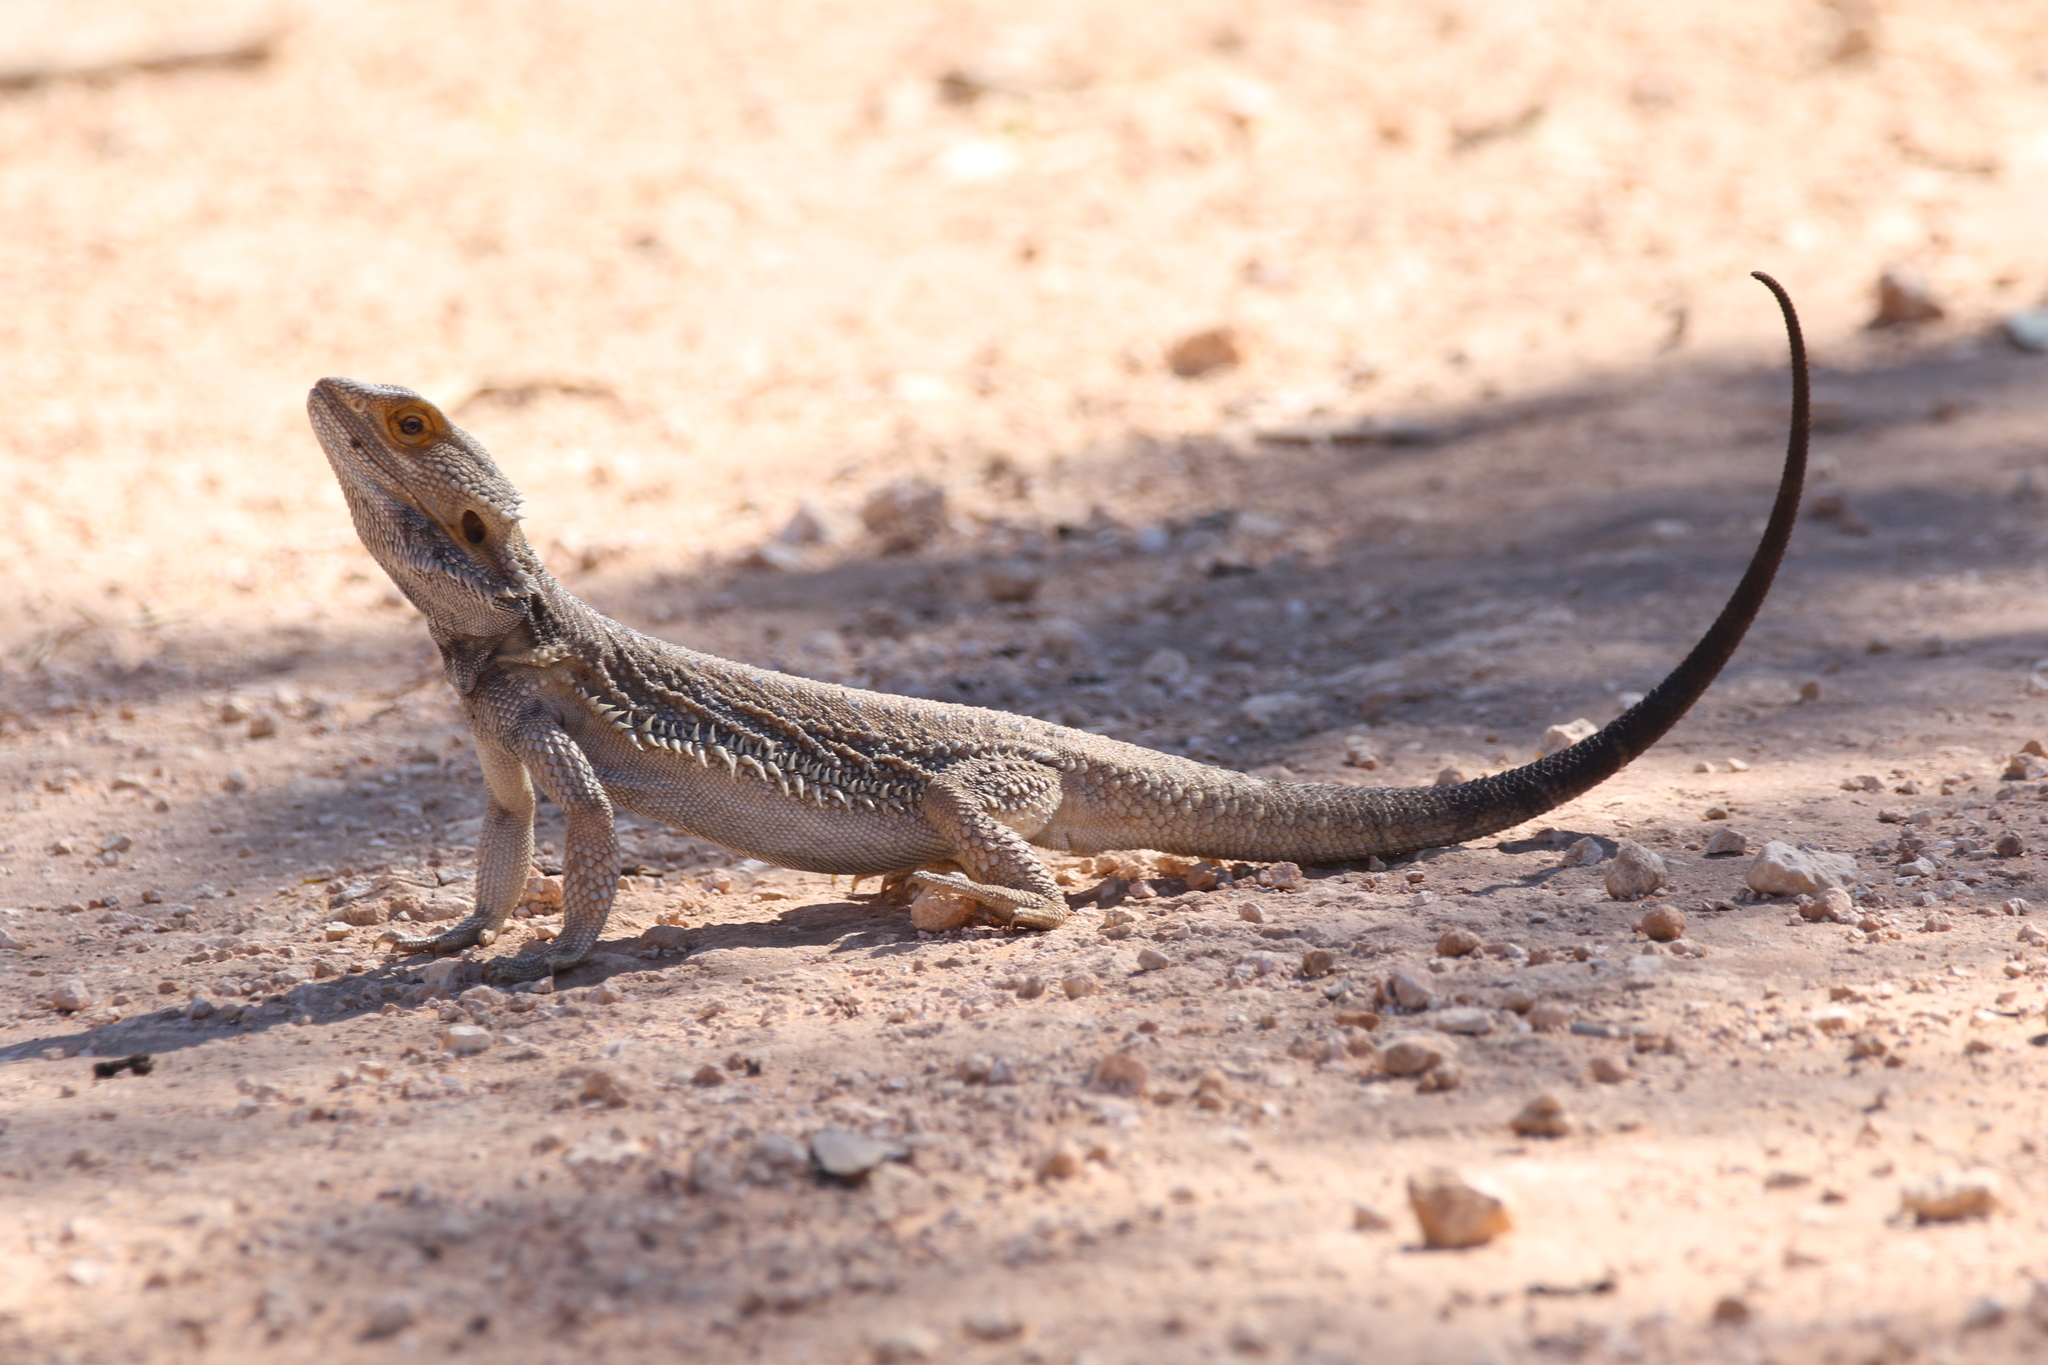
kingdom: Animalia
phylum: Chordata
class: Squamata
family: Agamidae
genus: Pogona
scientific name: Pogona vitticeps
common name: Central bearded dragon
